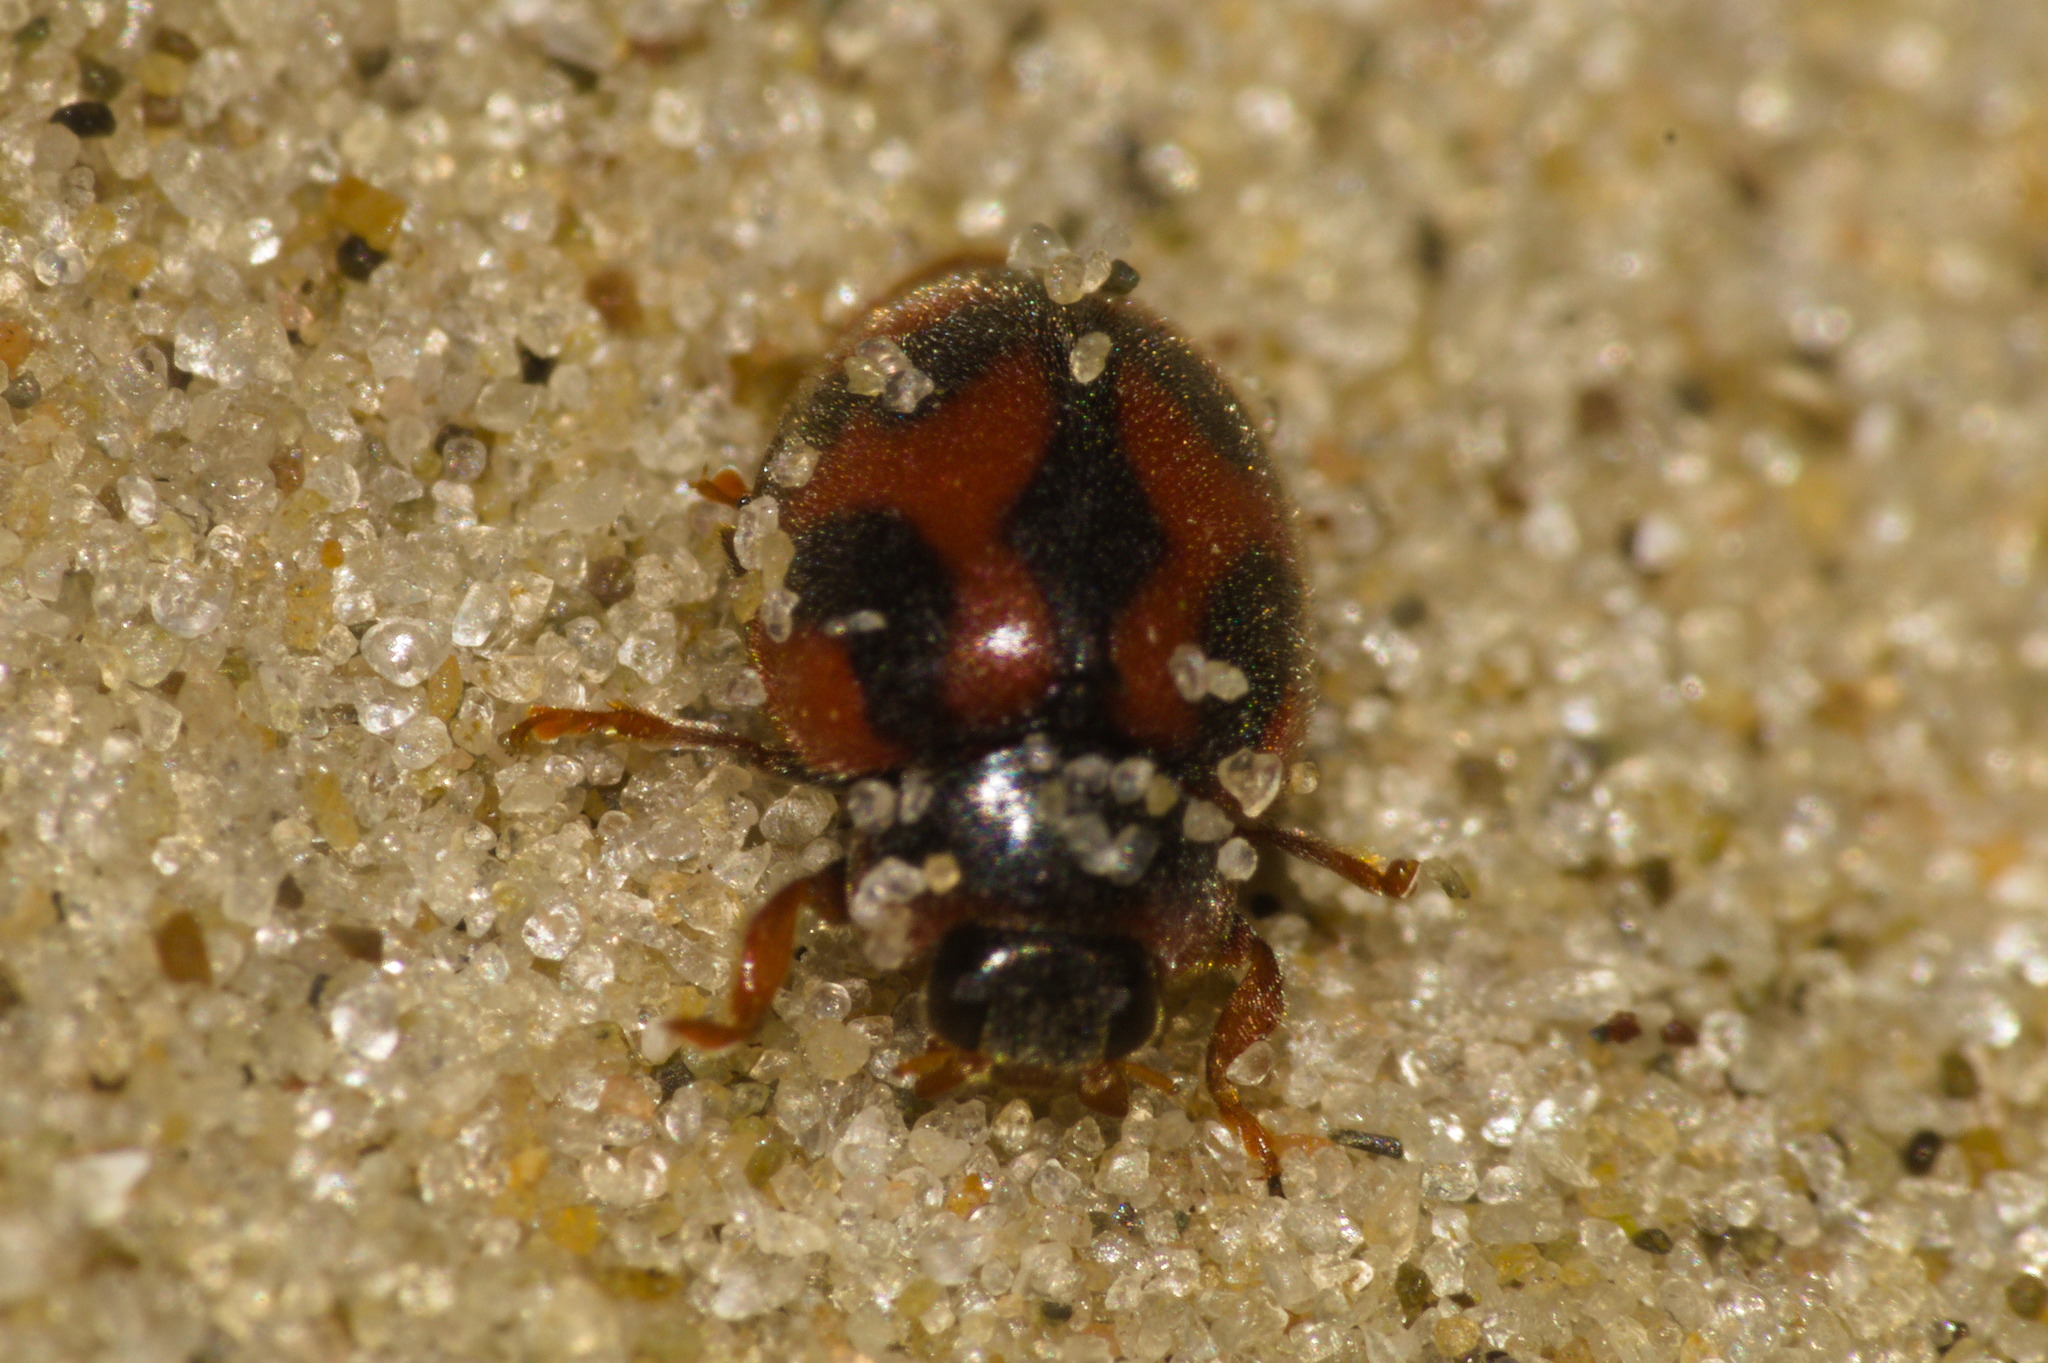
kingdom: Animalia
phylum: Arthropoda
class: Insecta
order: Coleoptera
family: Coccinellidae
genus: Novius
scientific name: Novius cardinalis
